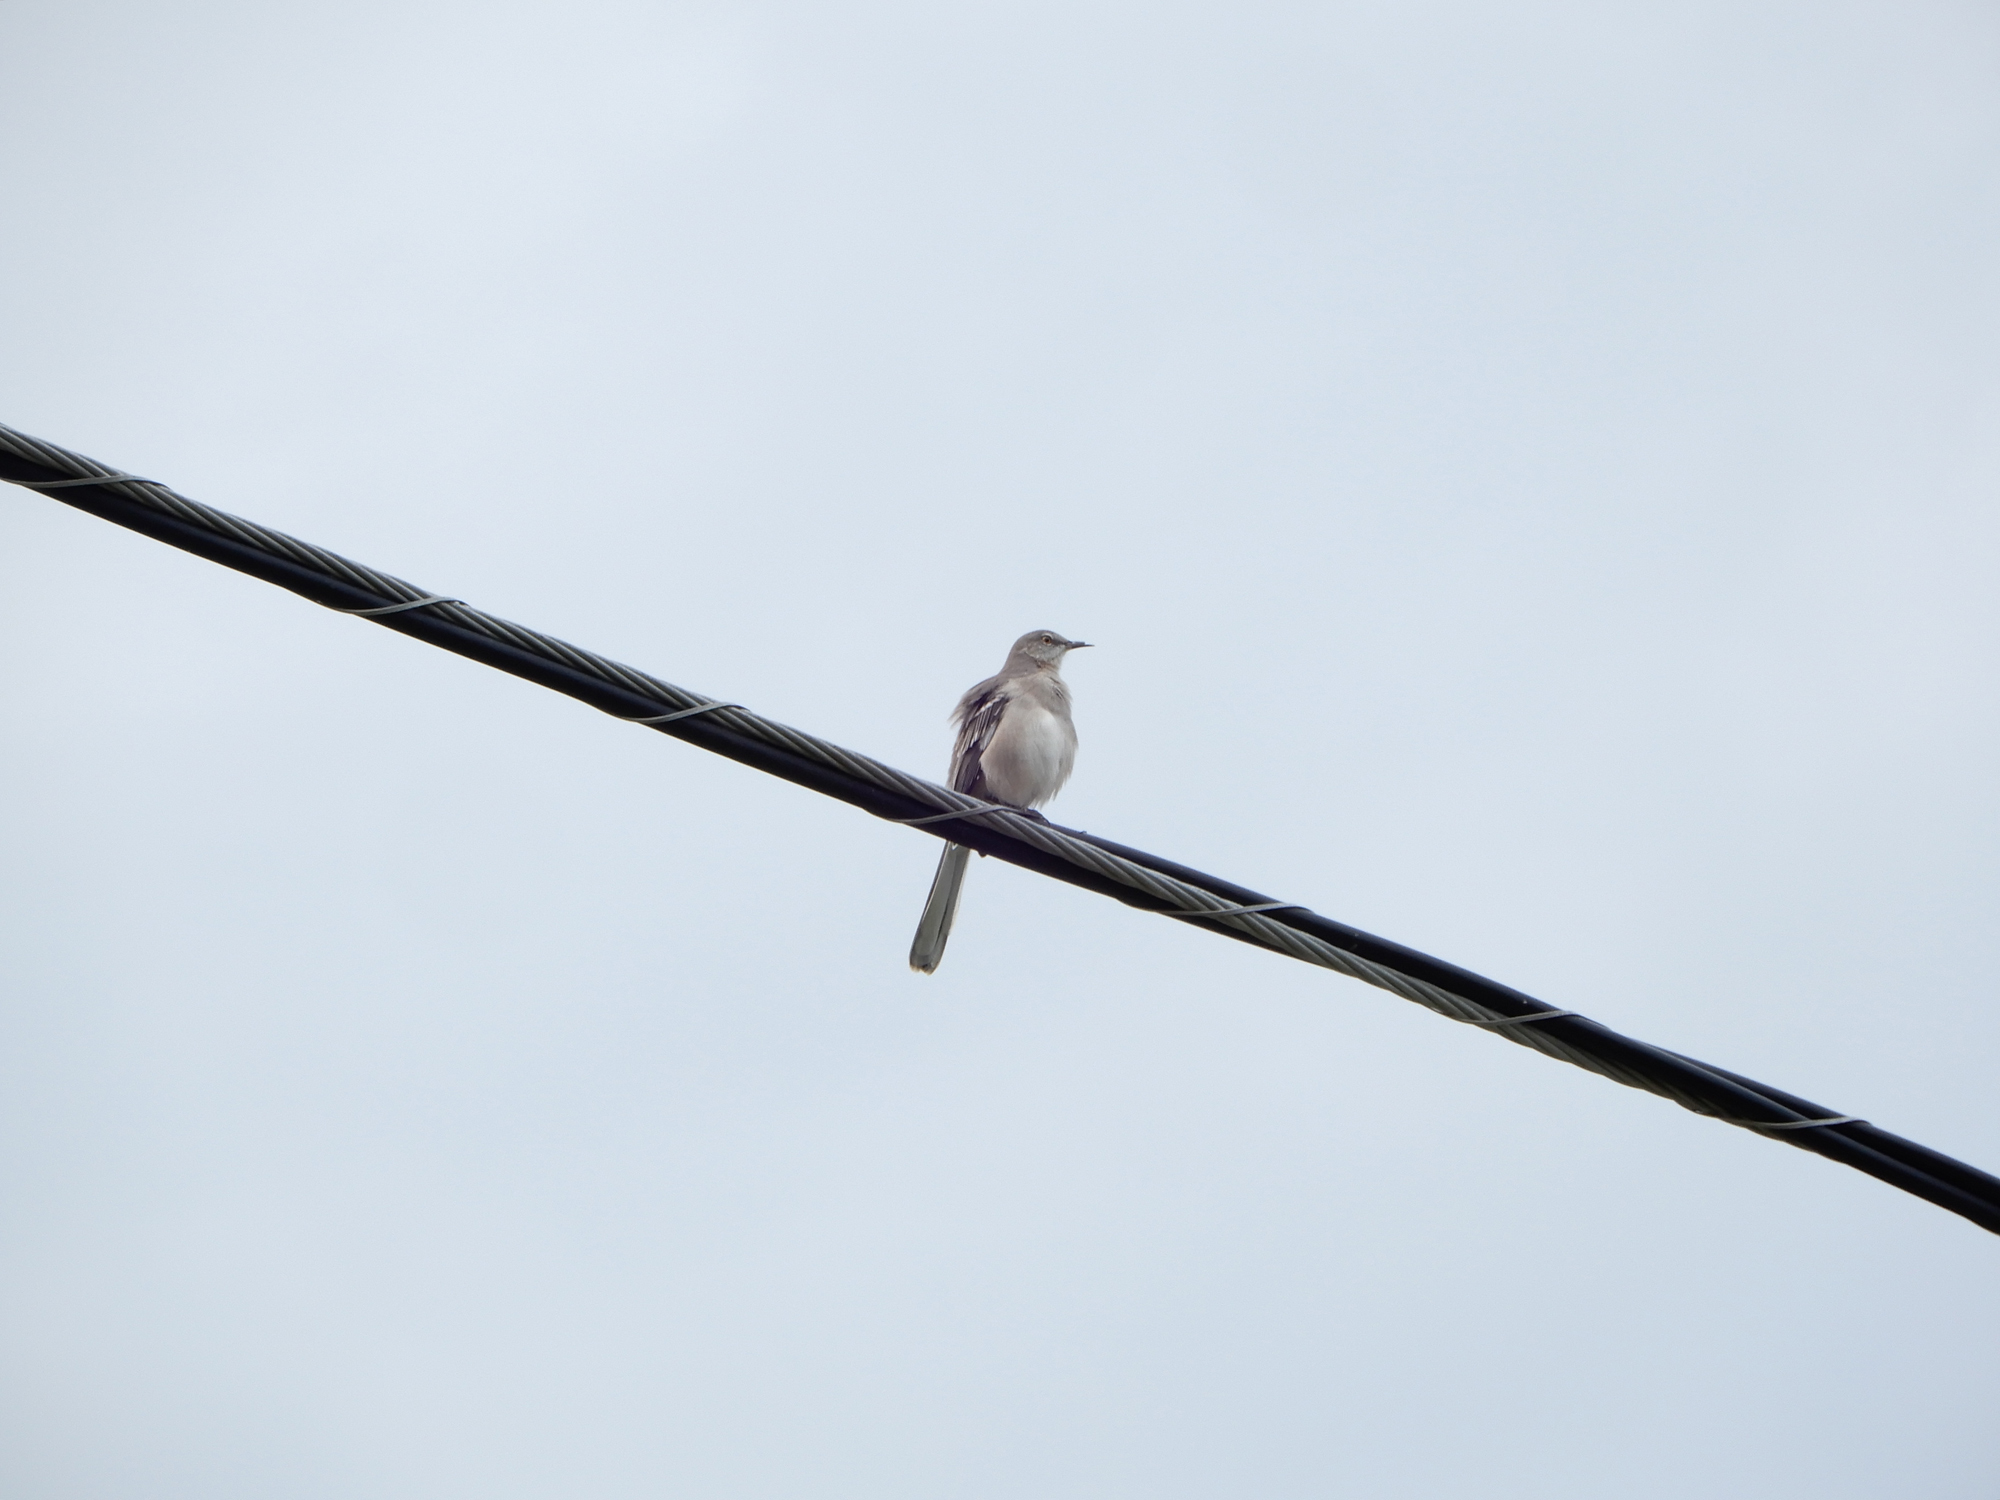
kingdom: Animalia
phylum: Chordata
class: Aves
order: Passeriformes
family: Mimidae
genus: Mimus
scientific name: Mimus polyglottos
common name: Northern mockingbird
